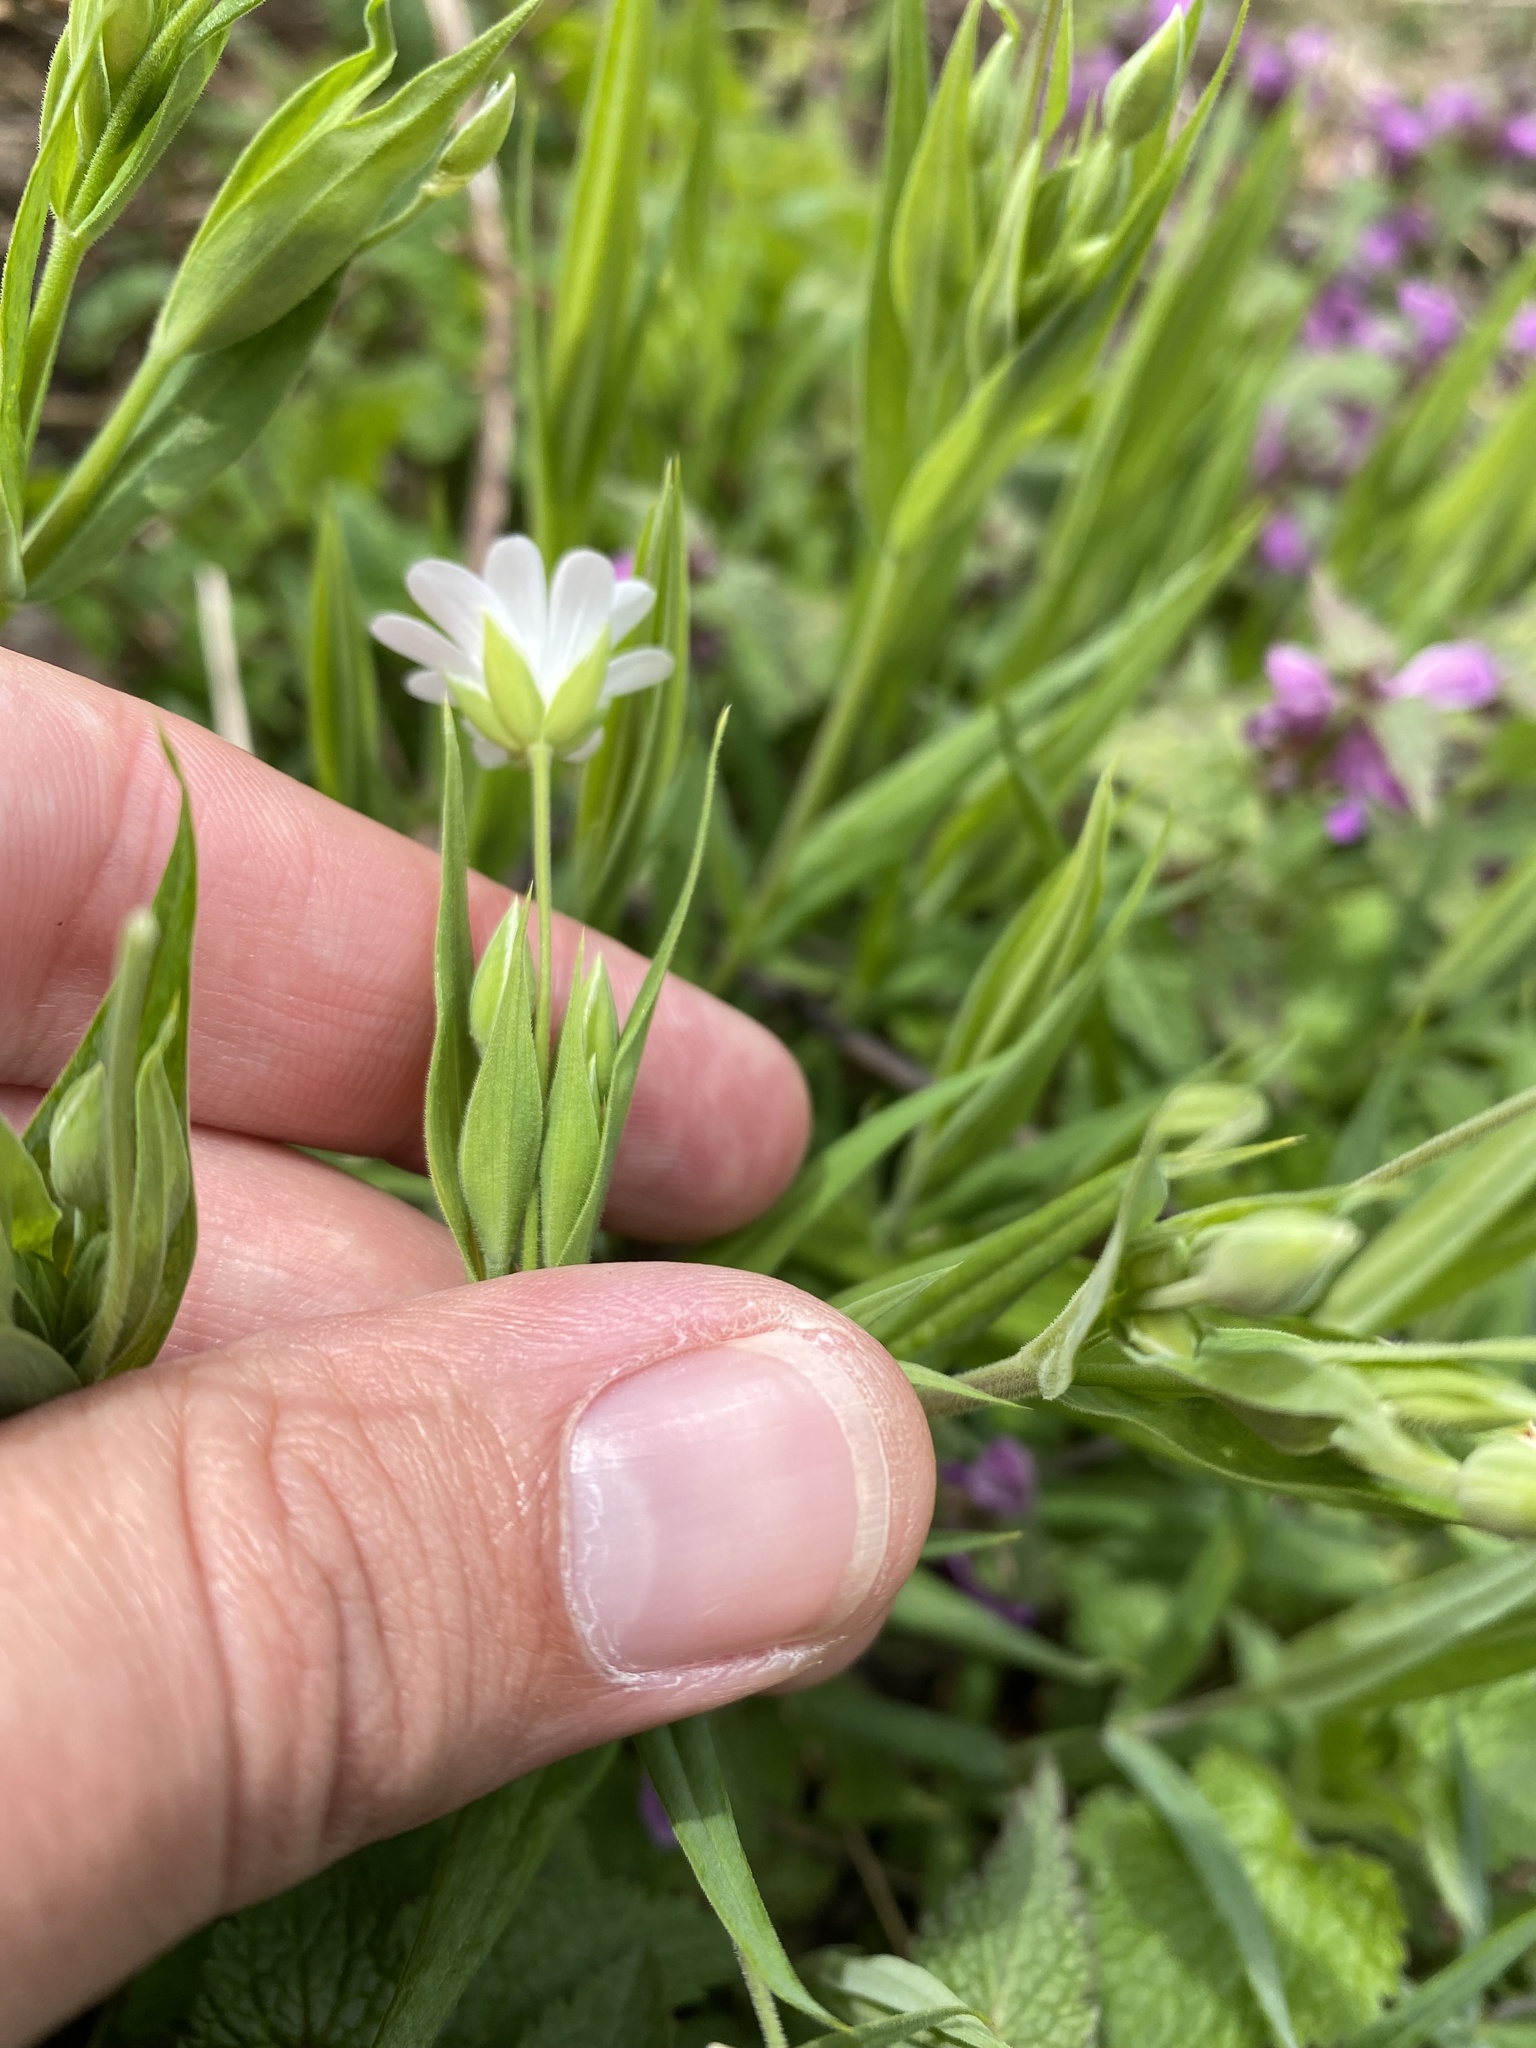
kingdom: Plantae
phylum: Tracheophyta
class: Magnoliopsida
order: Caryophyllales
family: Caryophyllaceae
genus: Rabelera
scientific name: Rabelera holostea
